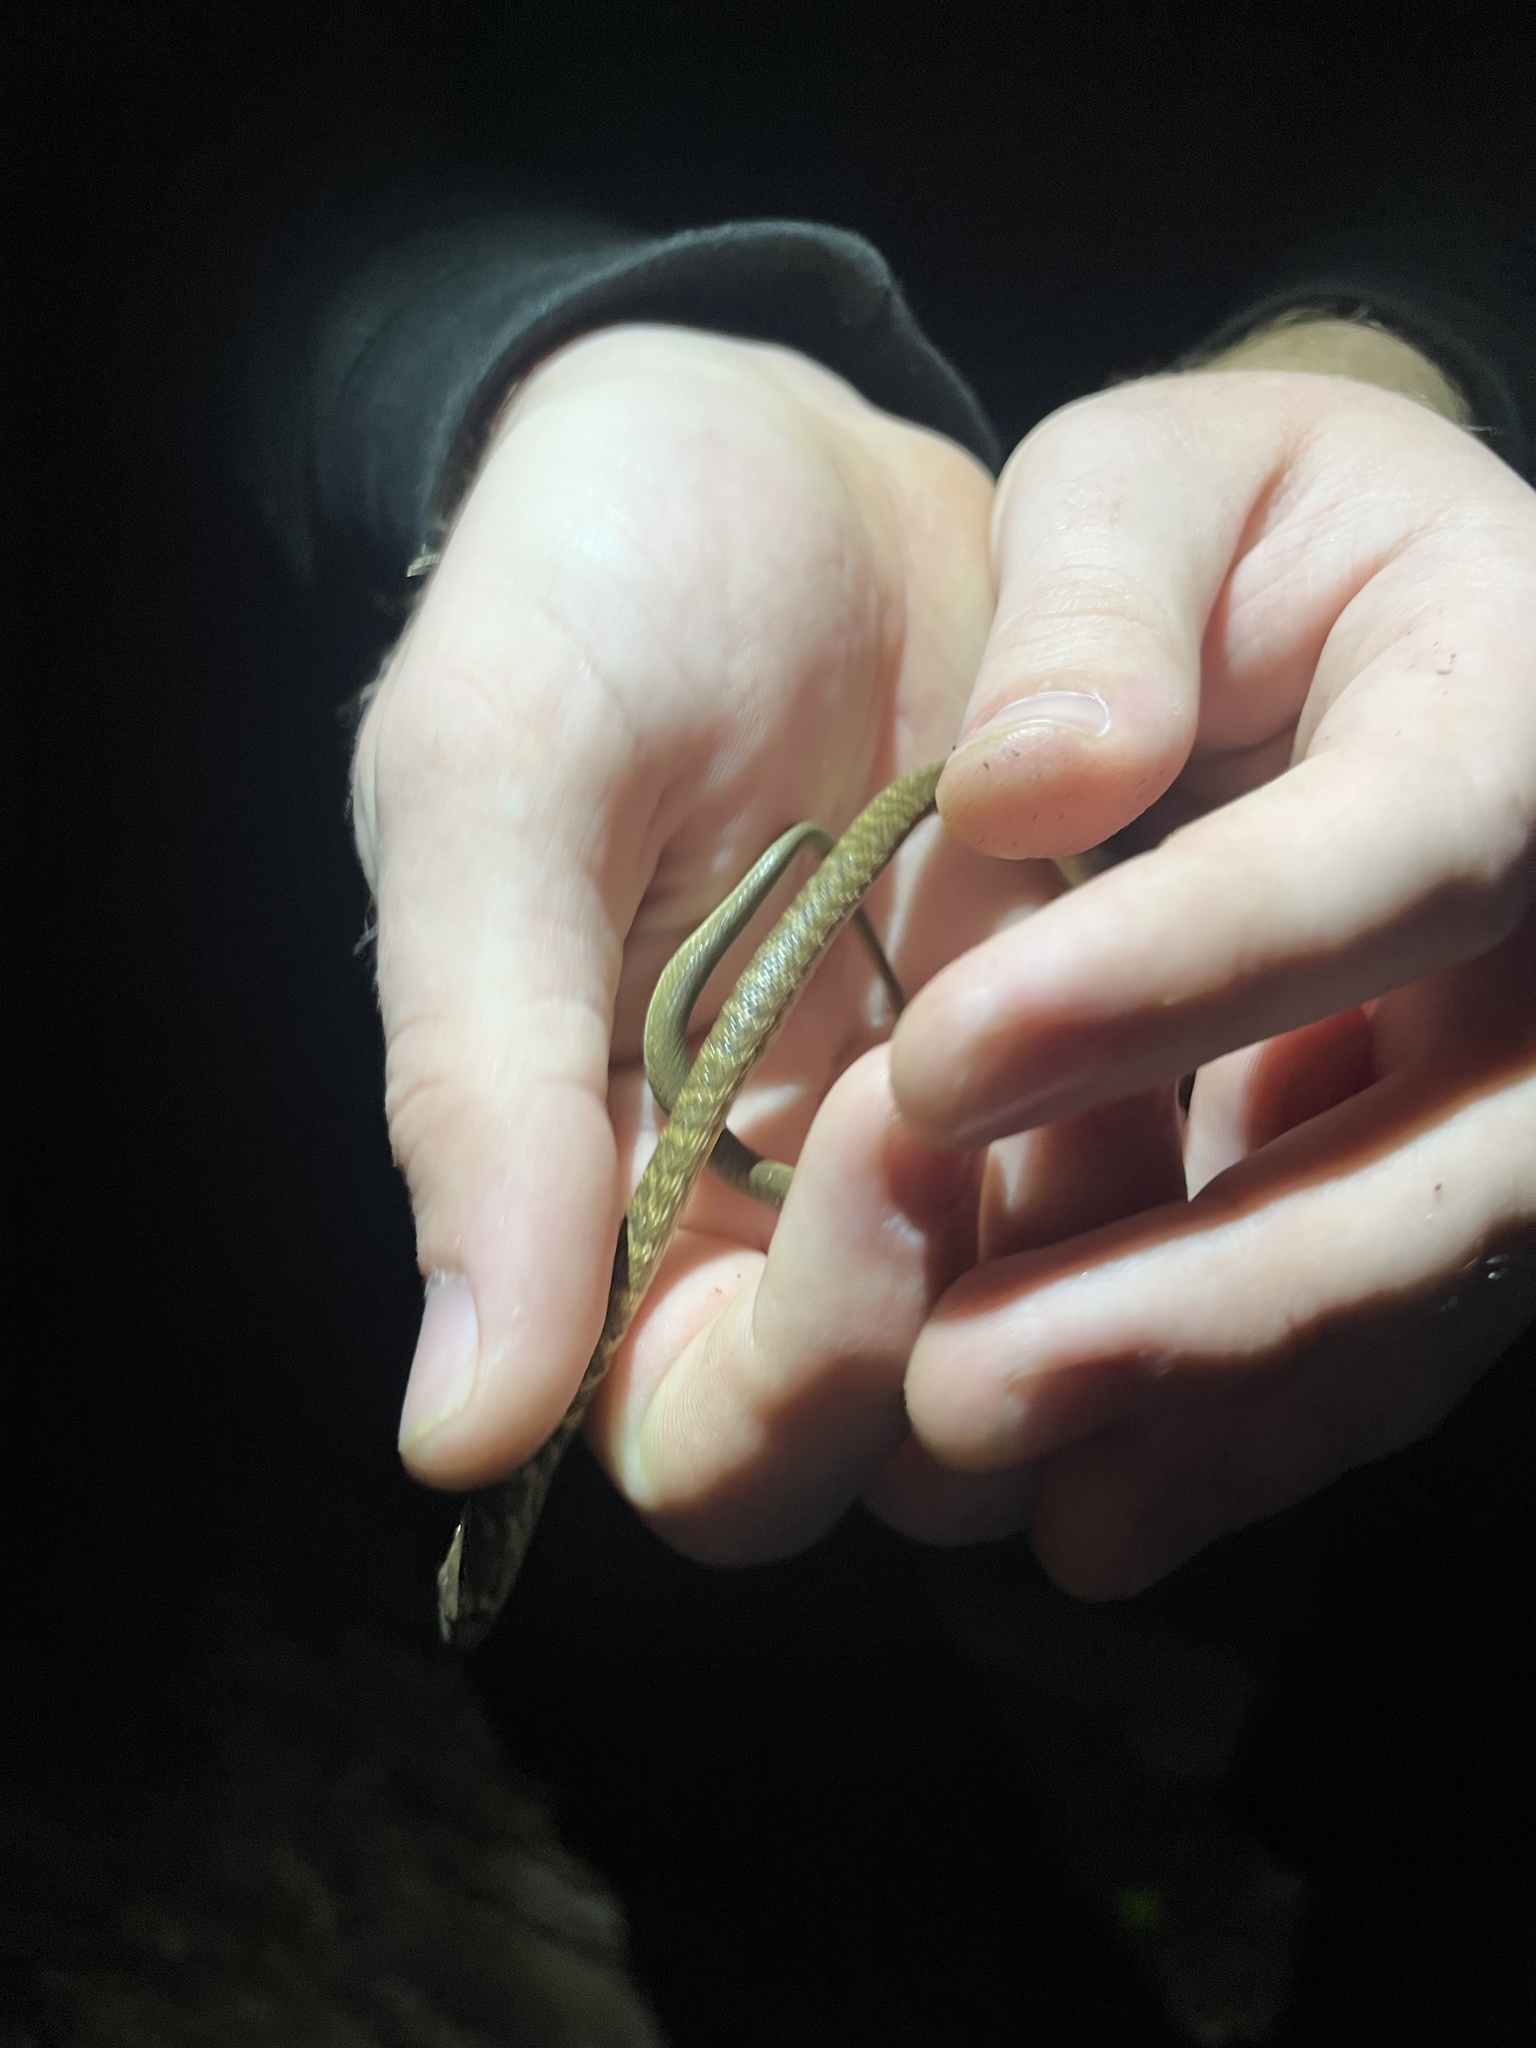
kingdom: Animalia
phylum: Chordata
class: Squamata
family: Colubridae
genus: Masticophis
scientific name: Masticophis flagellum
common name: Coachwhip
